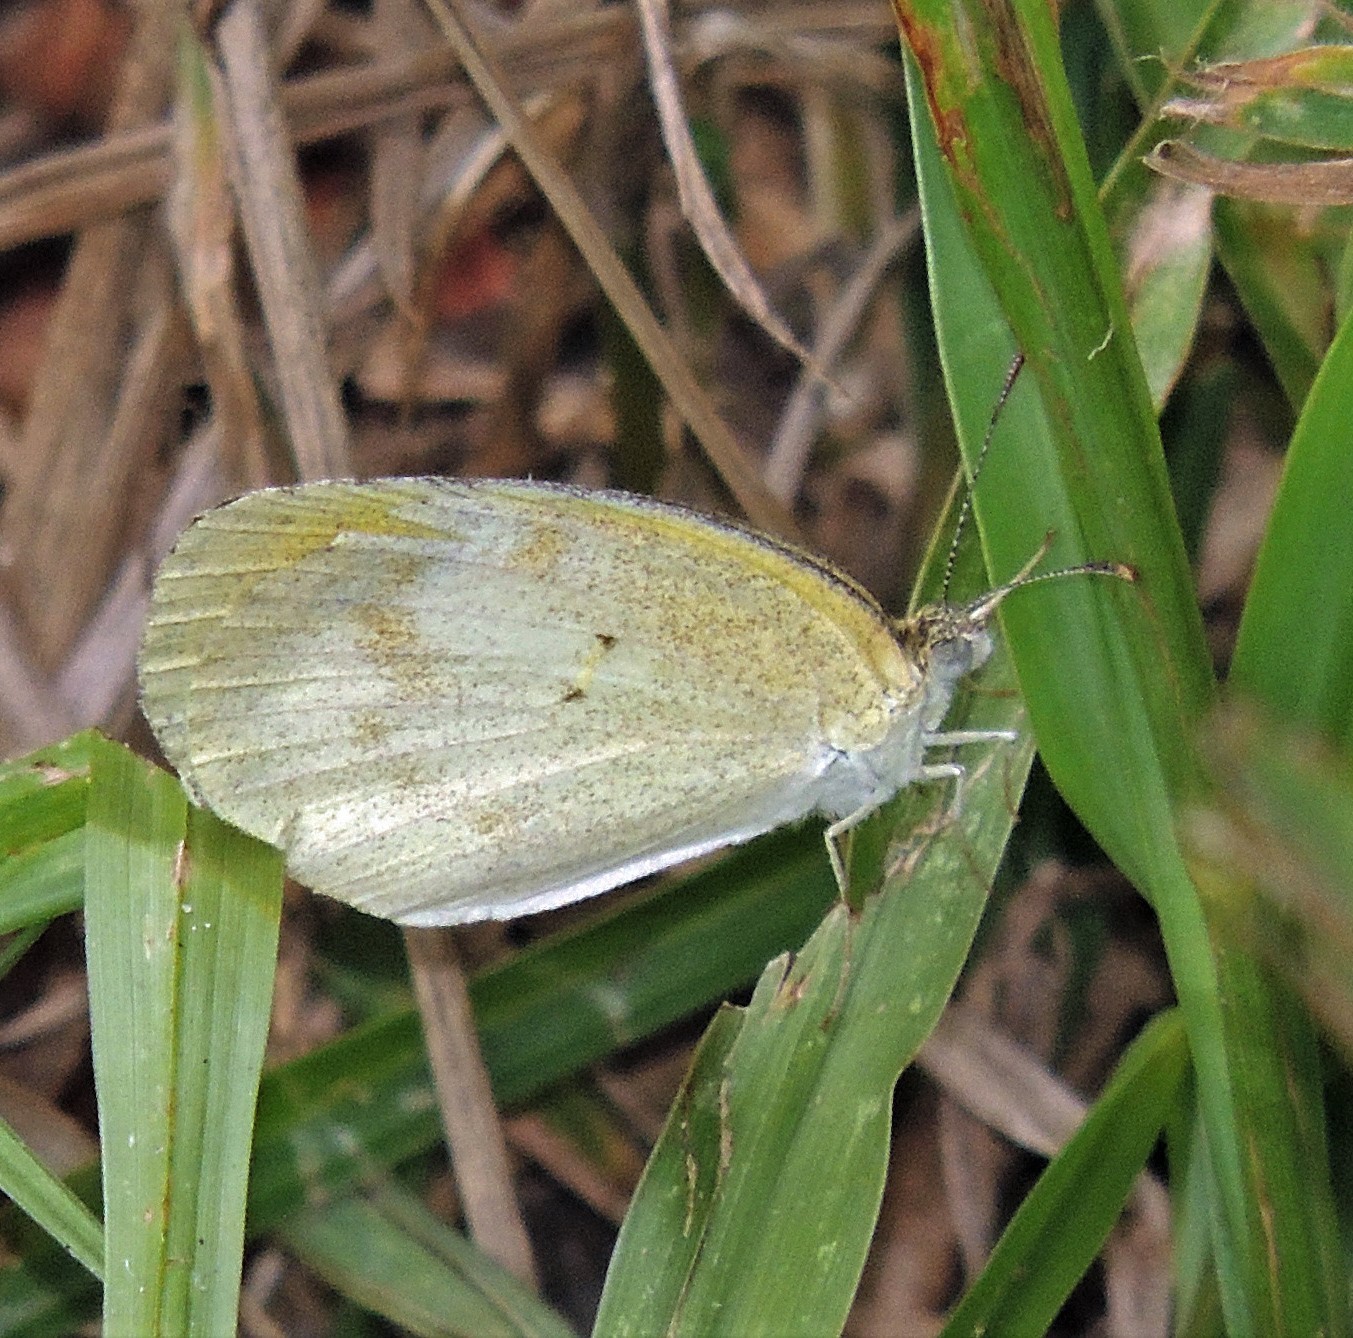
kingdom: Animalia
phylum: Arthropoda
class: Insecta
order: Lepidoptera
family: Pieridae
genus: Eurema
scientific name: Eurema elathea
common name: Banded yellow
